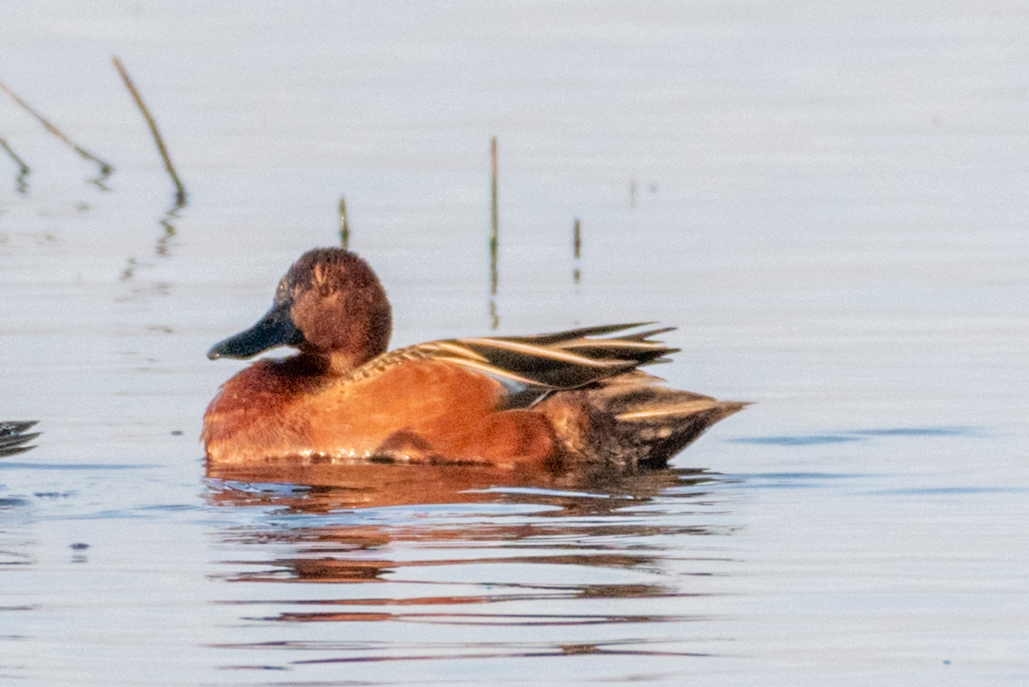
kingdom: Animalia
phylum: Chordata
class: Aves
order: Anseriformes
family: Anatidae
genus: Spatula
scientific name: Spatula cyanoptera
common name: Cinnamon teal
